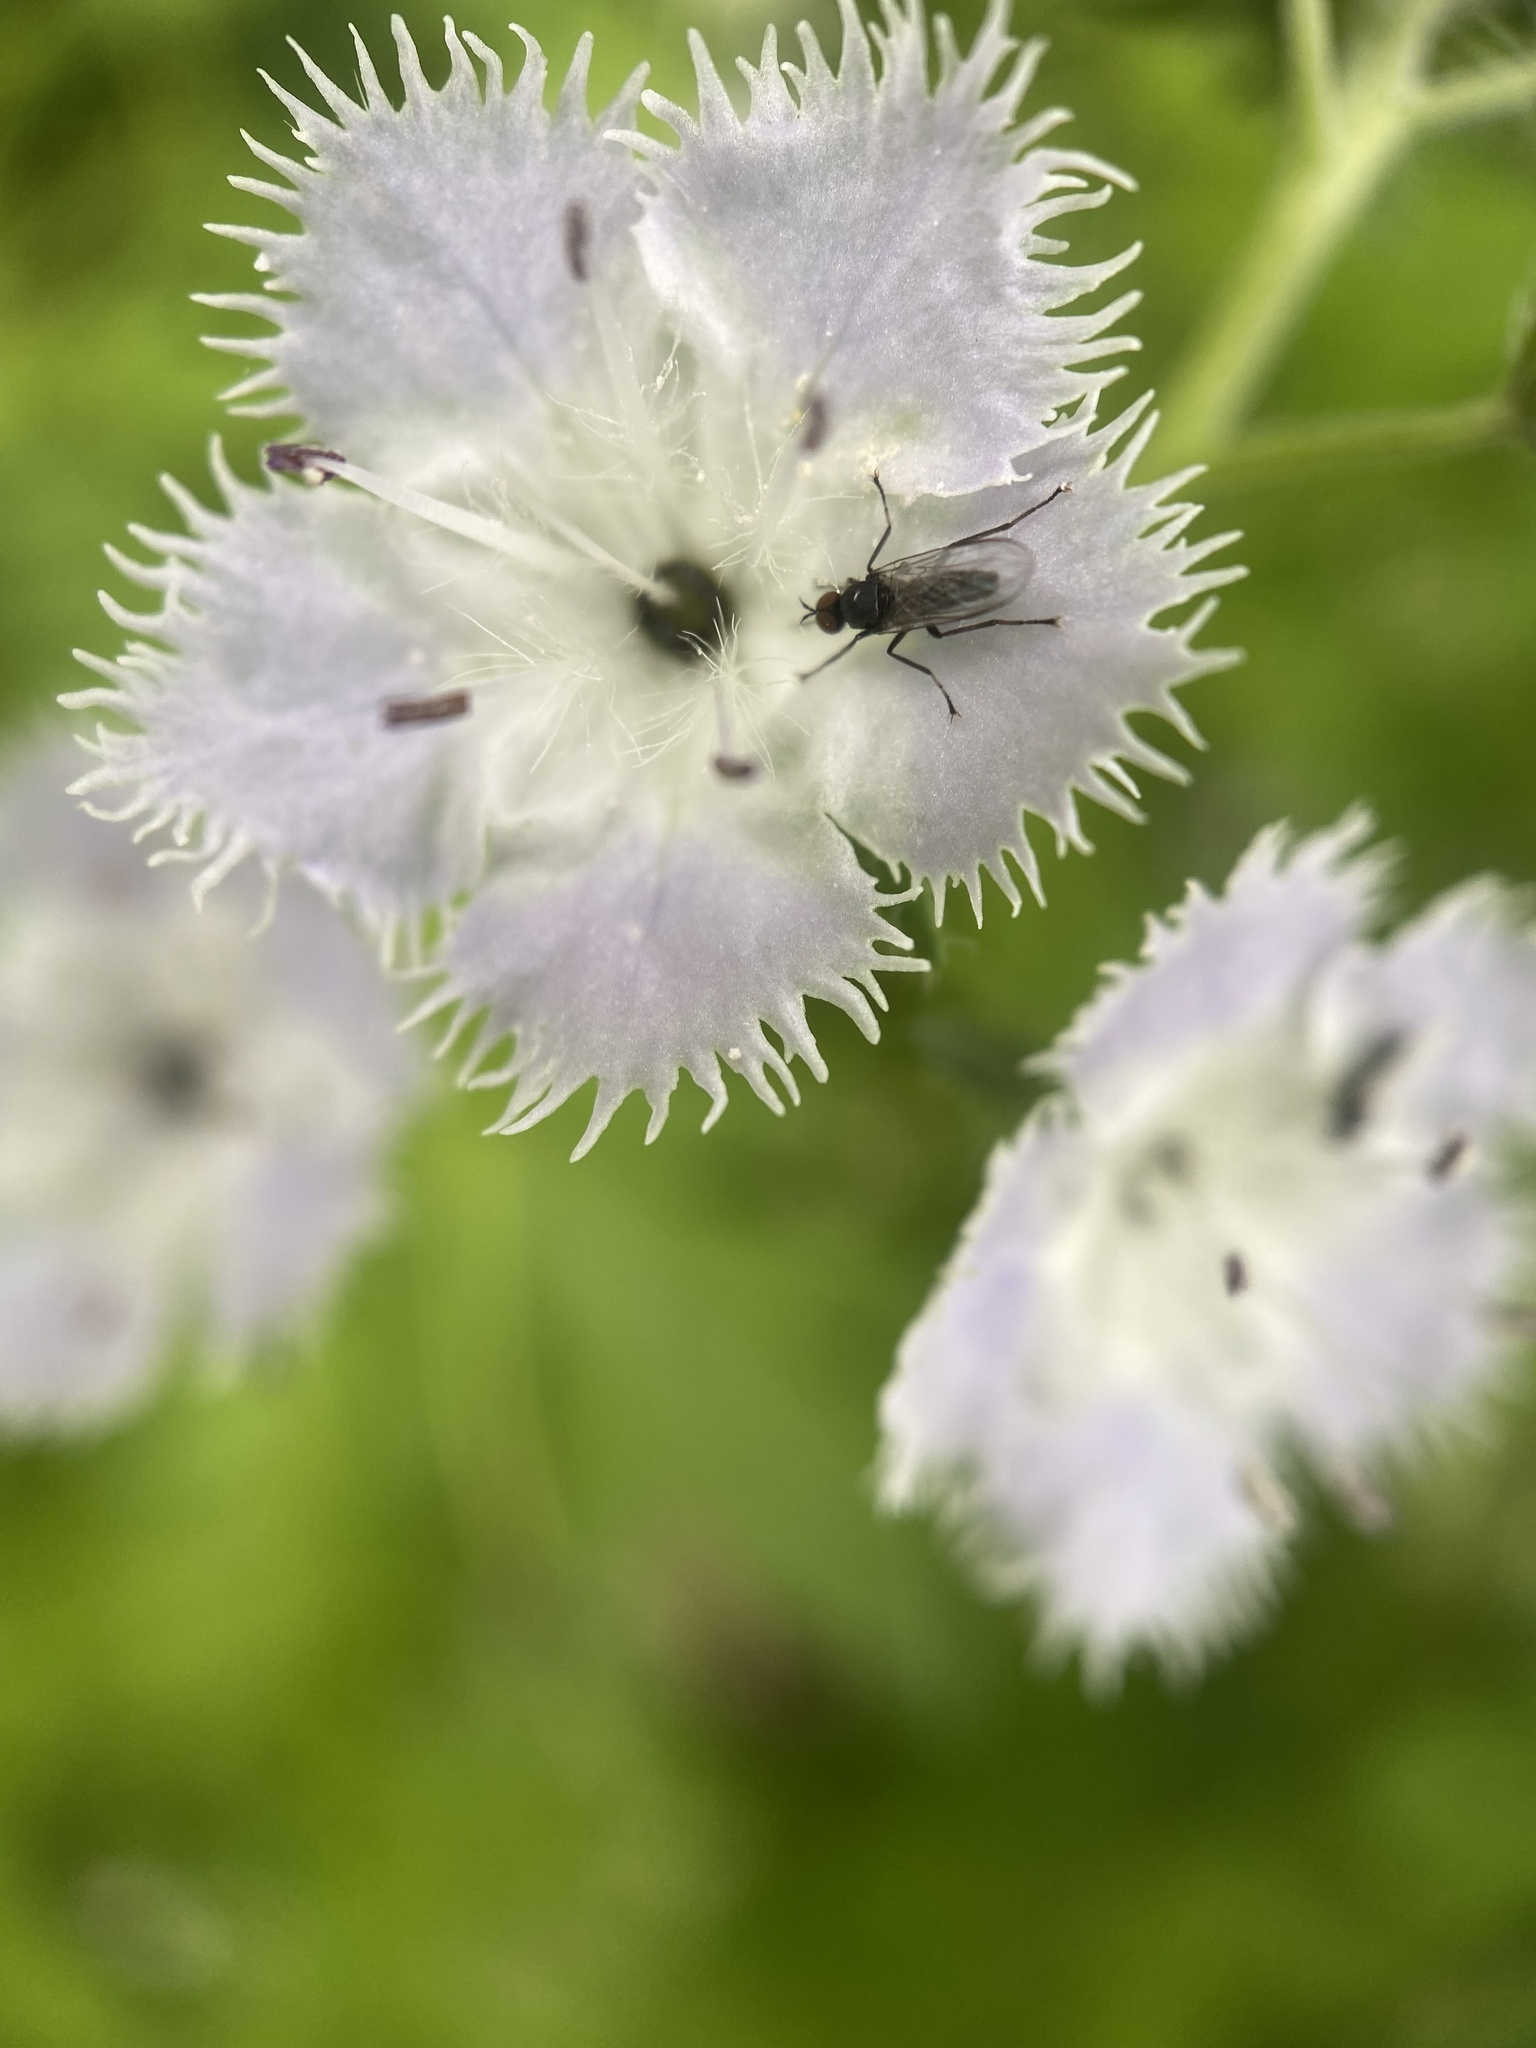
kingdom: Plantae
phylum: Tracheophyta
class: Magnoliopsida
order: Boraginales
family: Hydrophyllaceae
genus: Phacelia
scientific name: Phacelia purshii
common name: Miami-mist
